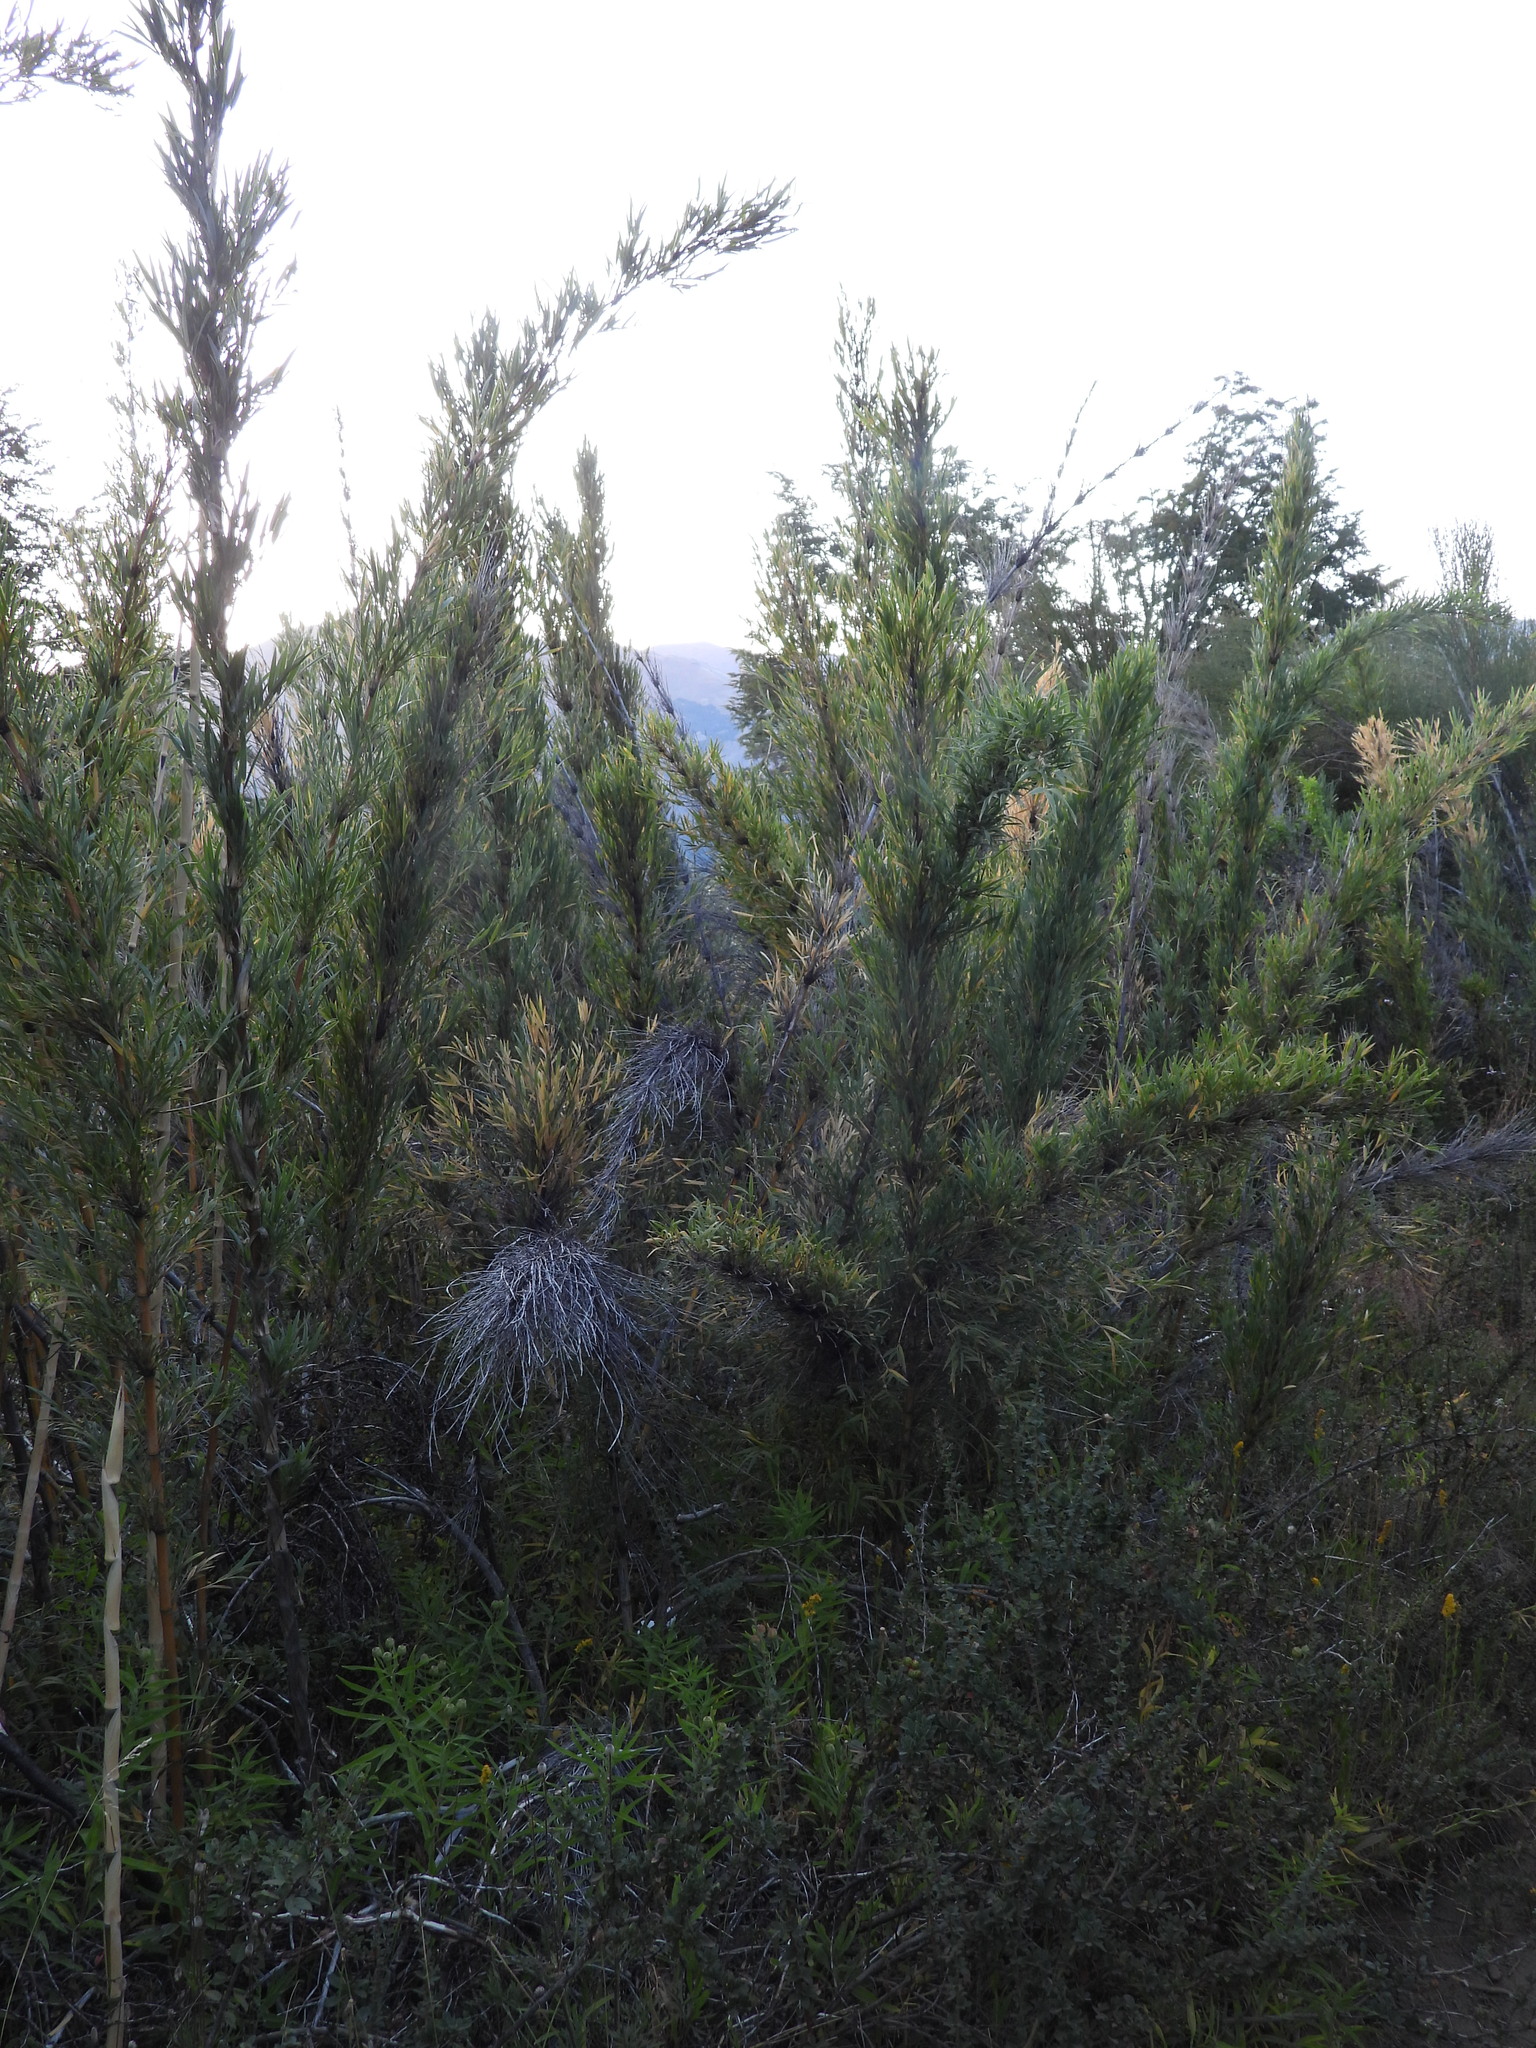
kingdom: Plantae
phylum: Tracheophyta
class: Liliopsida
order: Poales
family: Poaceae
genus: Chusquea
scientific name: Chusquea culeou
